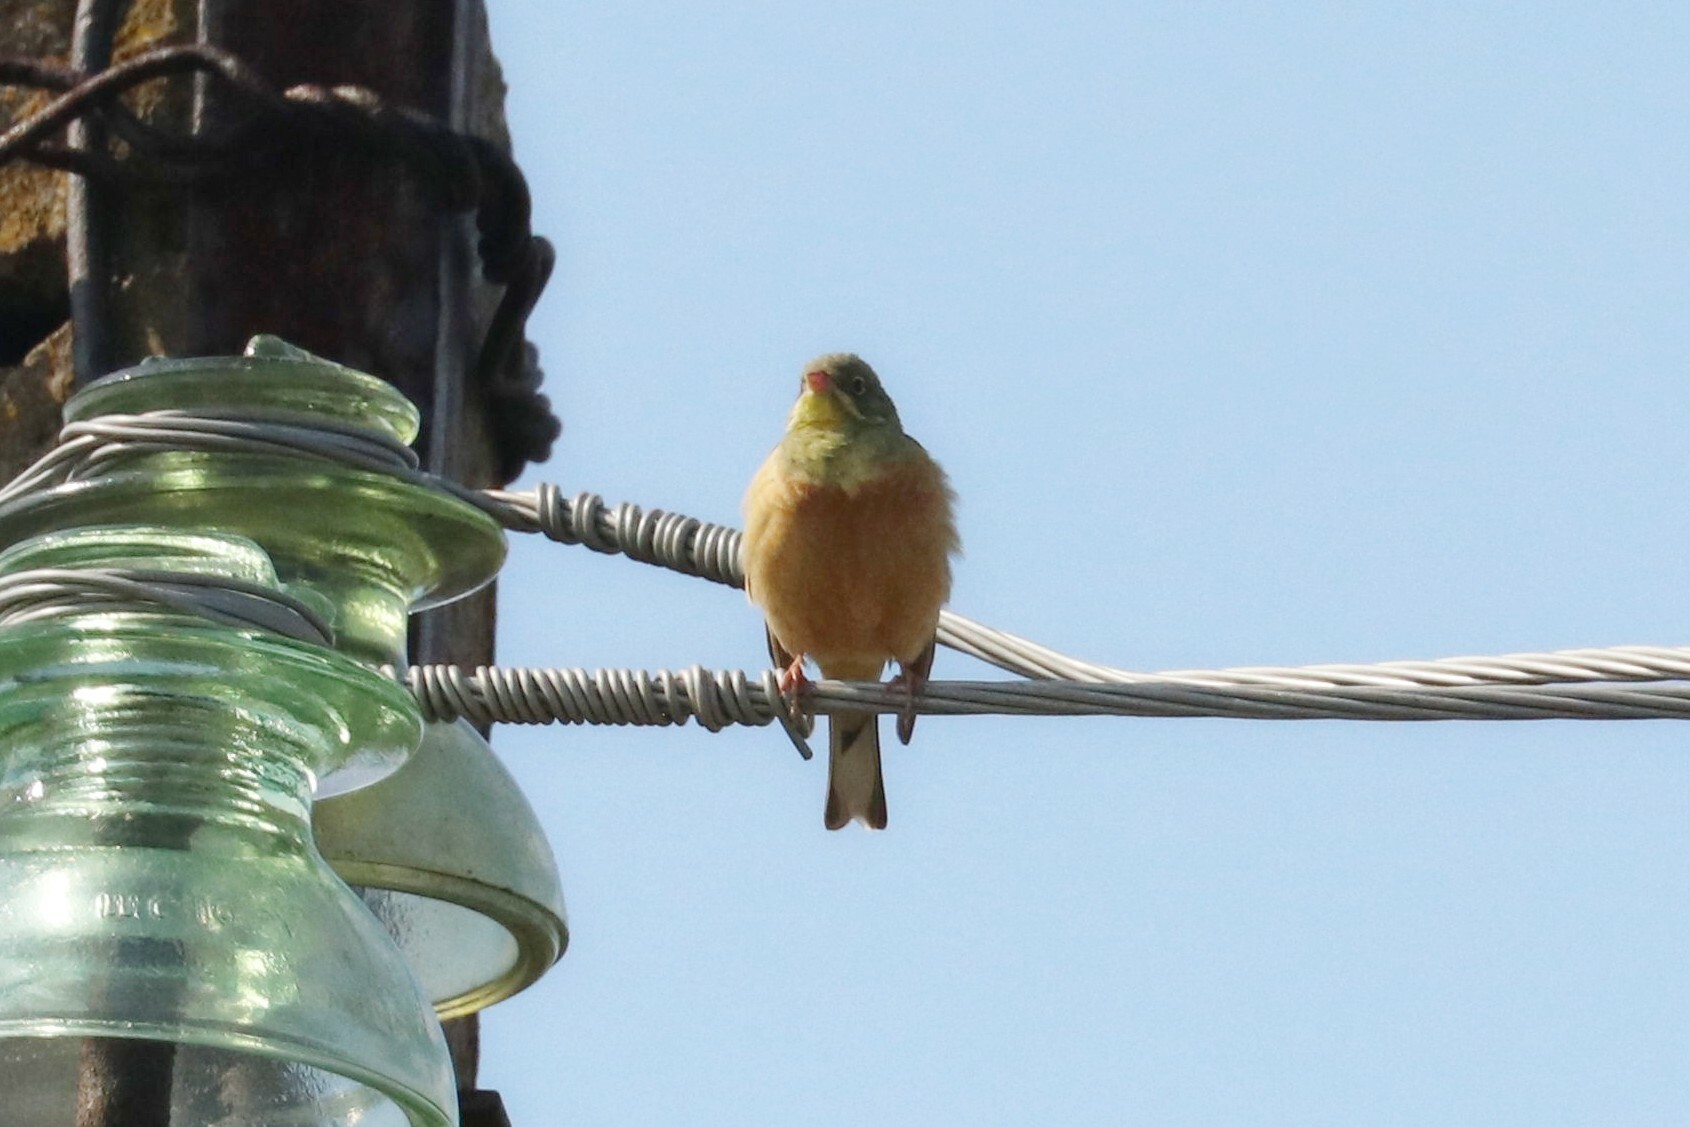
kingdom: Animalia
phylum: Chordata
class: Aves
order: Passeriformes
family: Emberizidae
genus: Emberiza
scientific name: Emberiza hortulana
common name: Ortolan bunting
